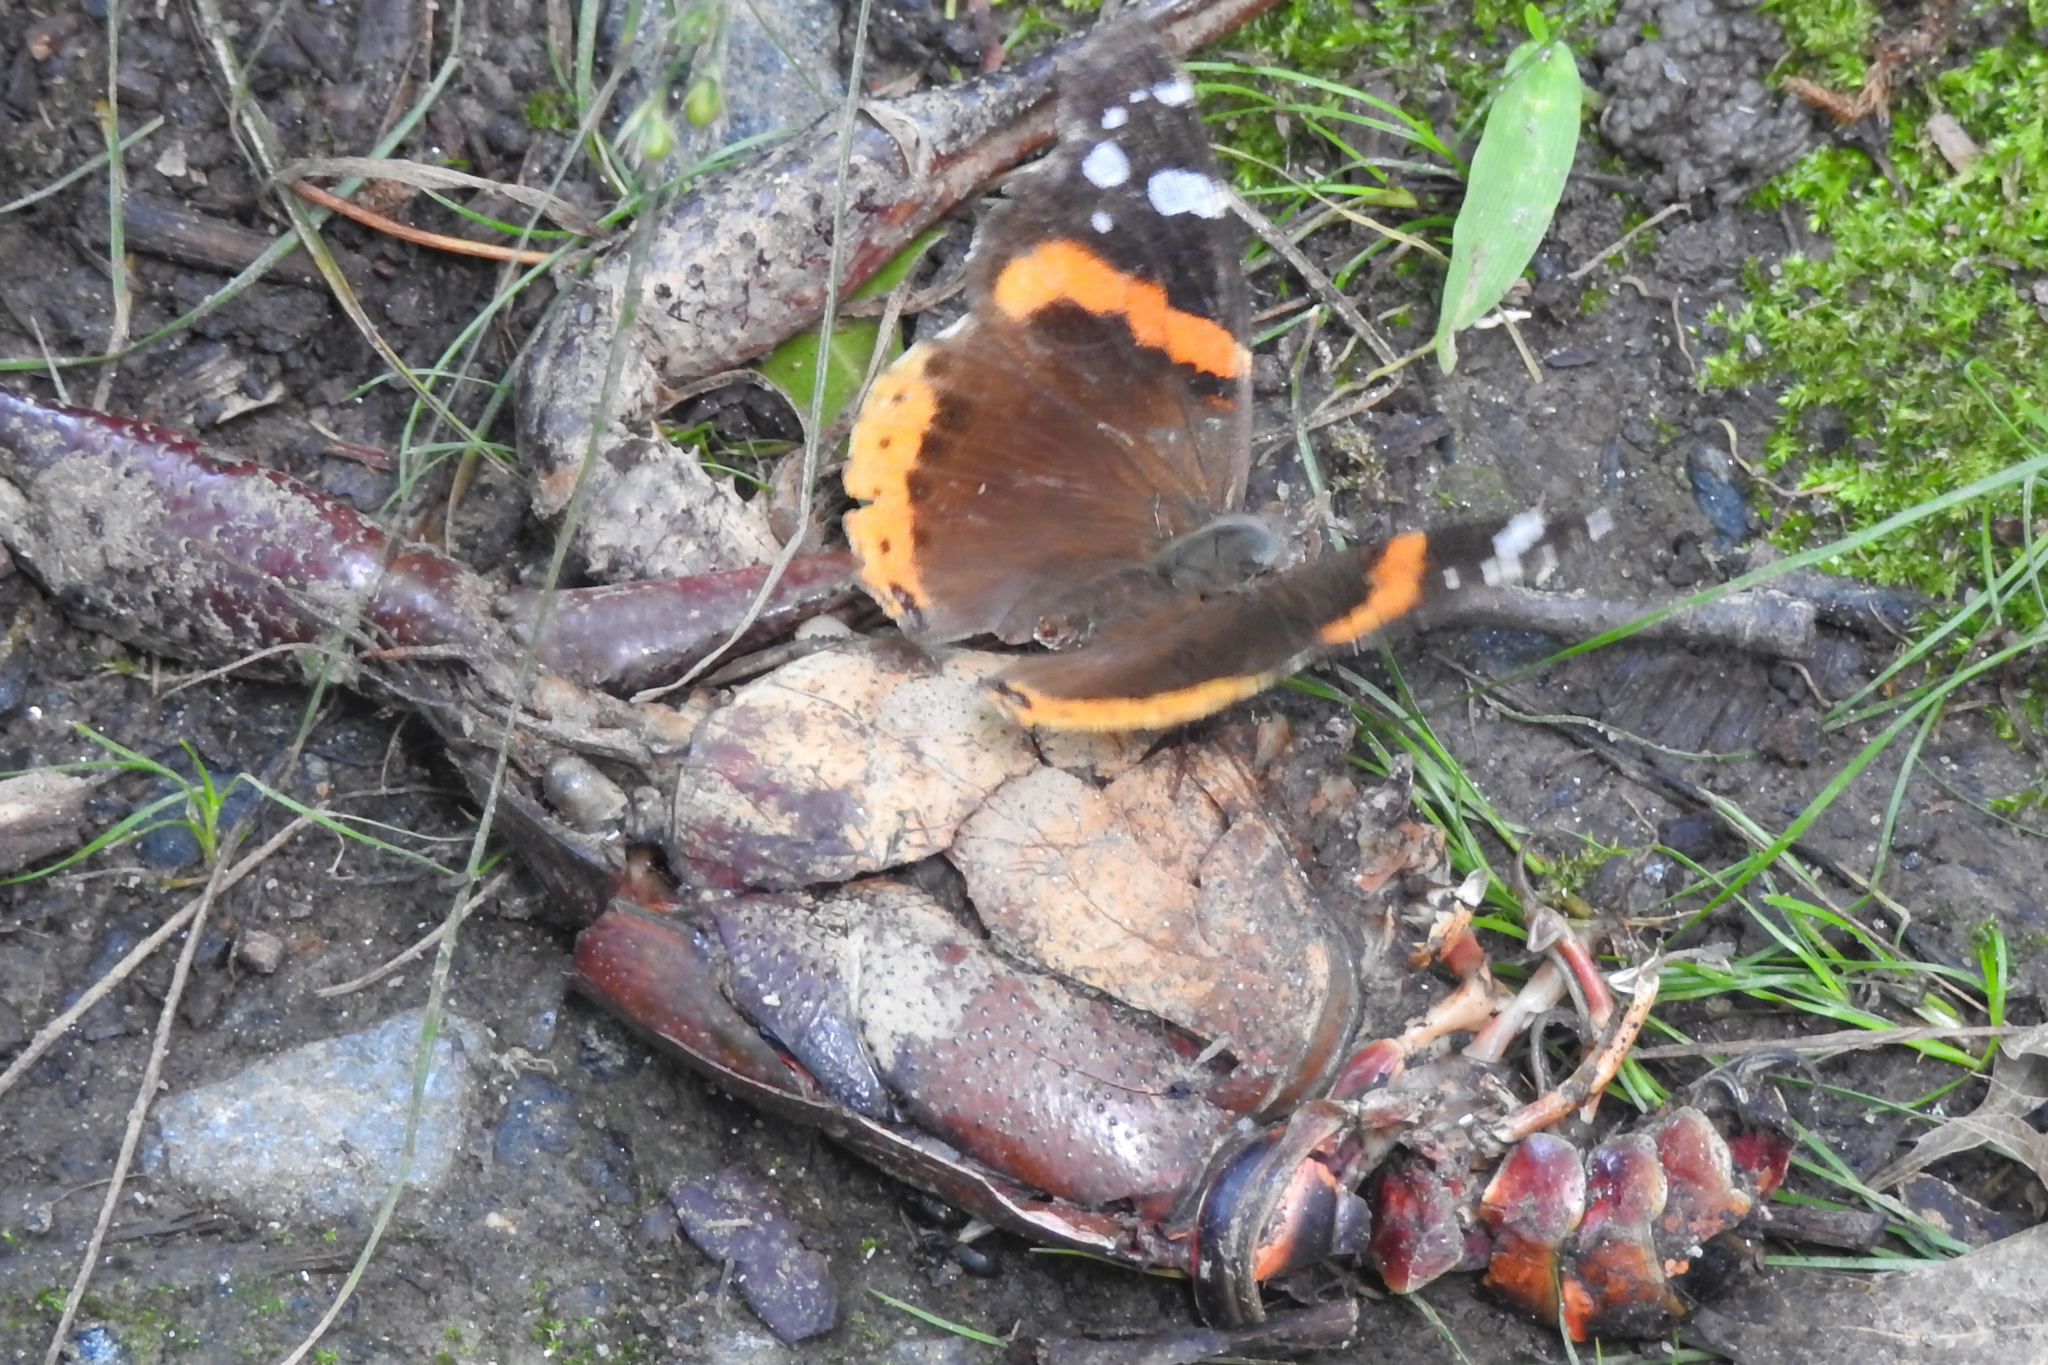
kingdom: Animalia
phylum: Arthropoda
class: Insecta
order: Lepidoptera
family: Nymphalidae
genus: Vanessa
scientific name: Vanessa atalanta
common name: Red admiral
